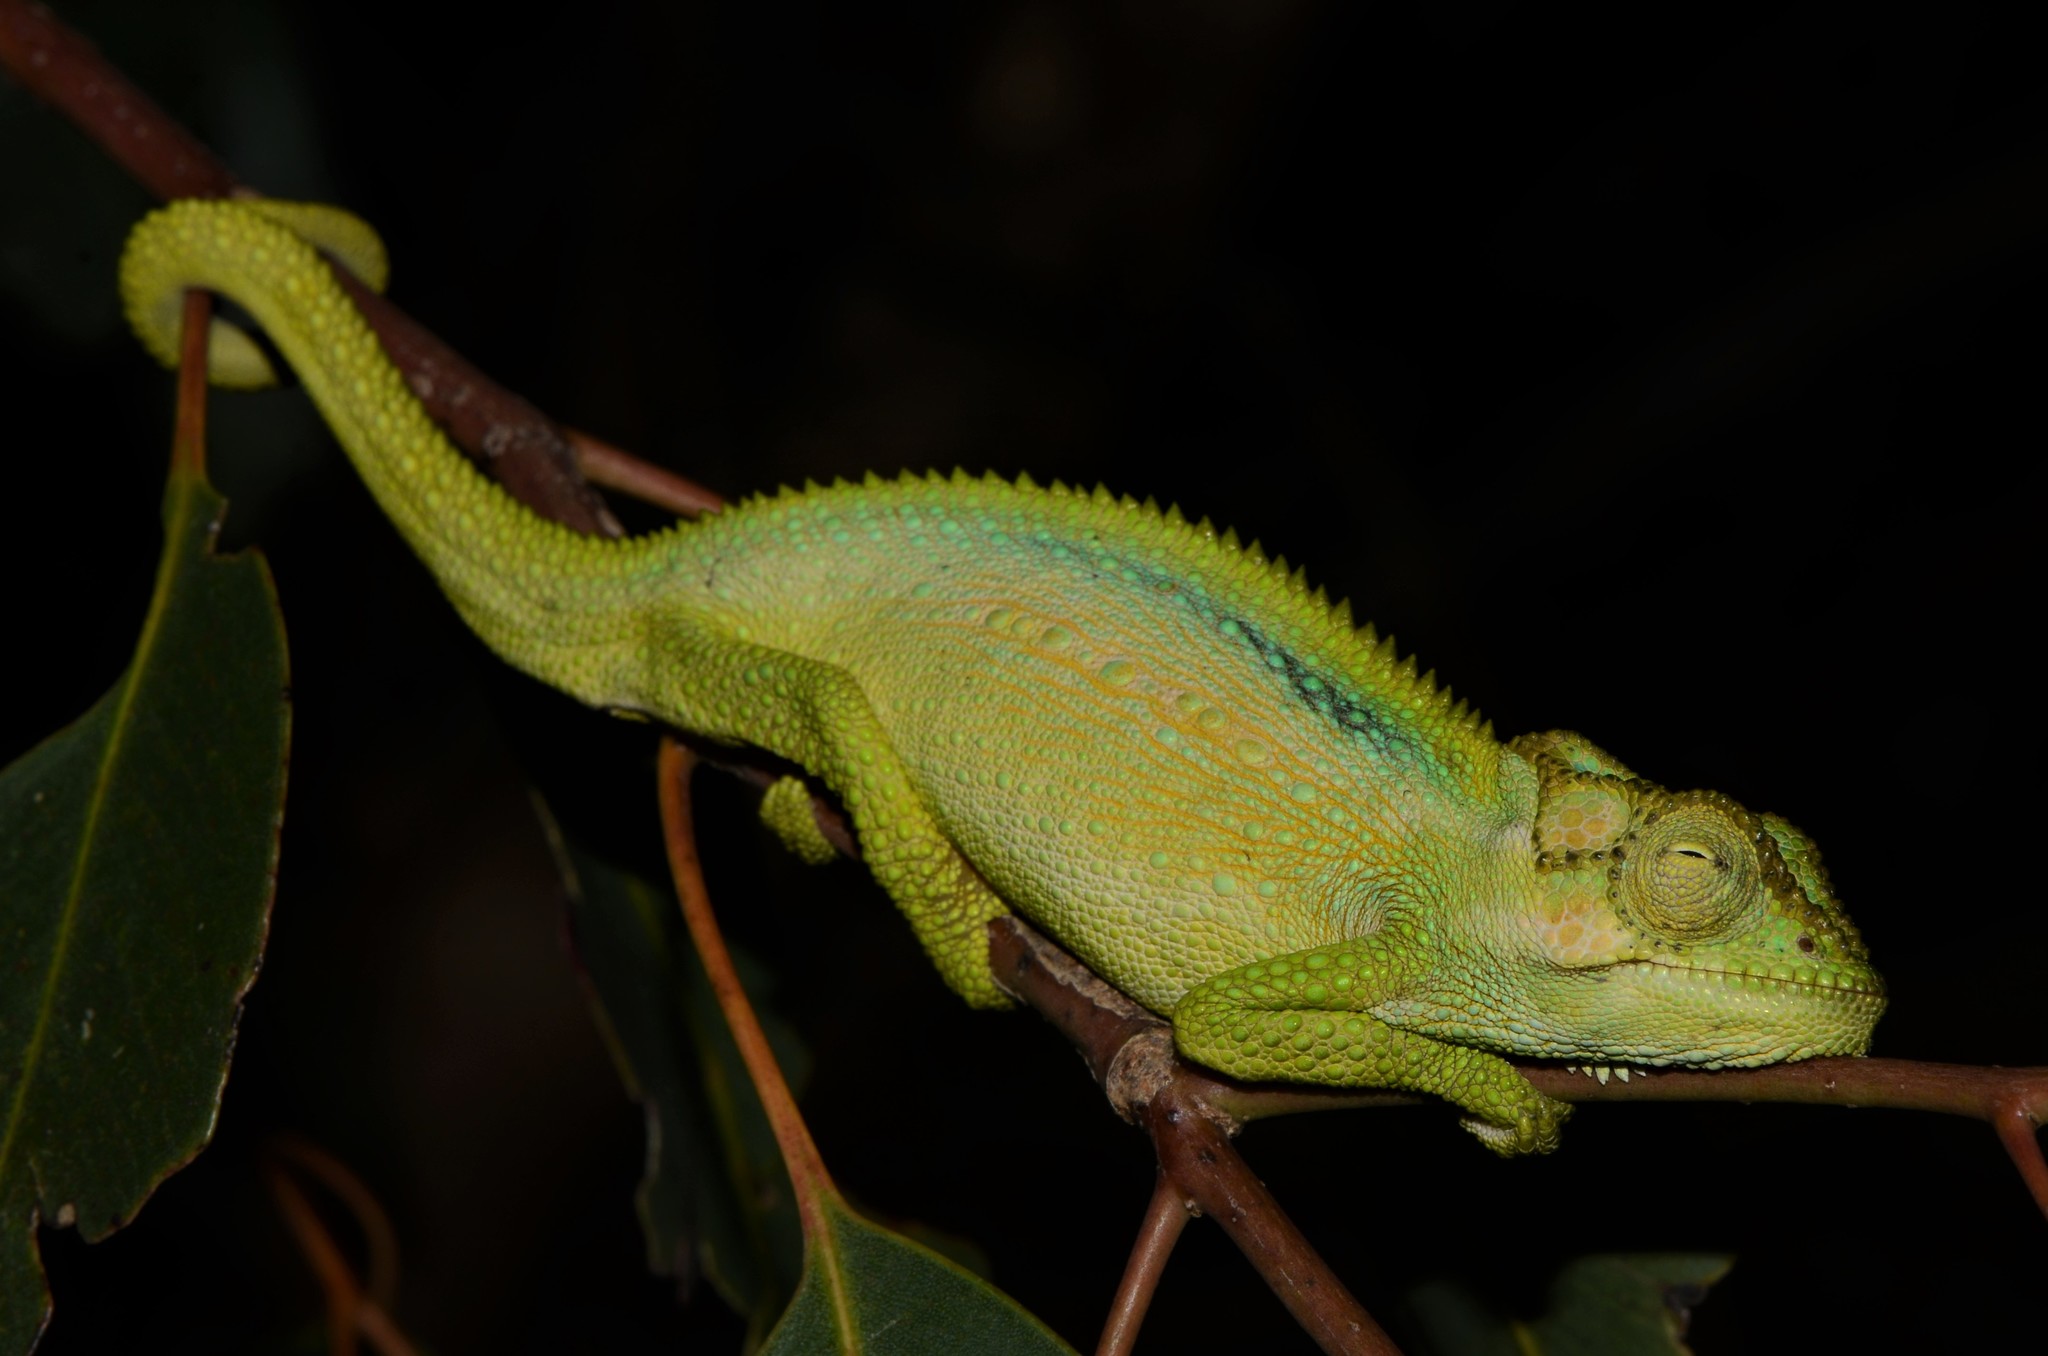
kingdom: Animalia
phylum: Chordata
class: Squamata
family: Chamaeleonidae
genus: Bradypodion
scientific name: Bradypodion pumilum
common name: Cape dwarf chameleon
